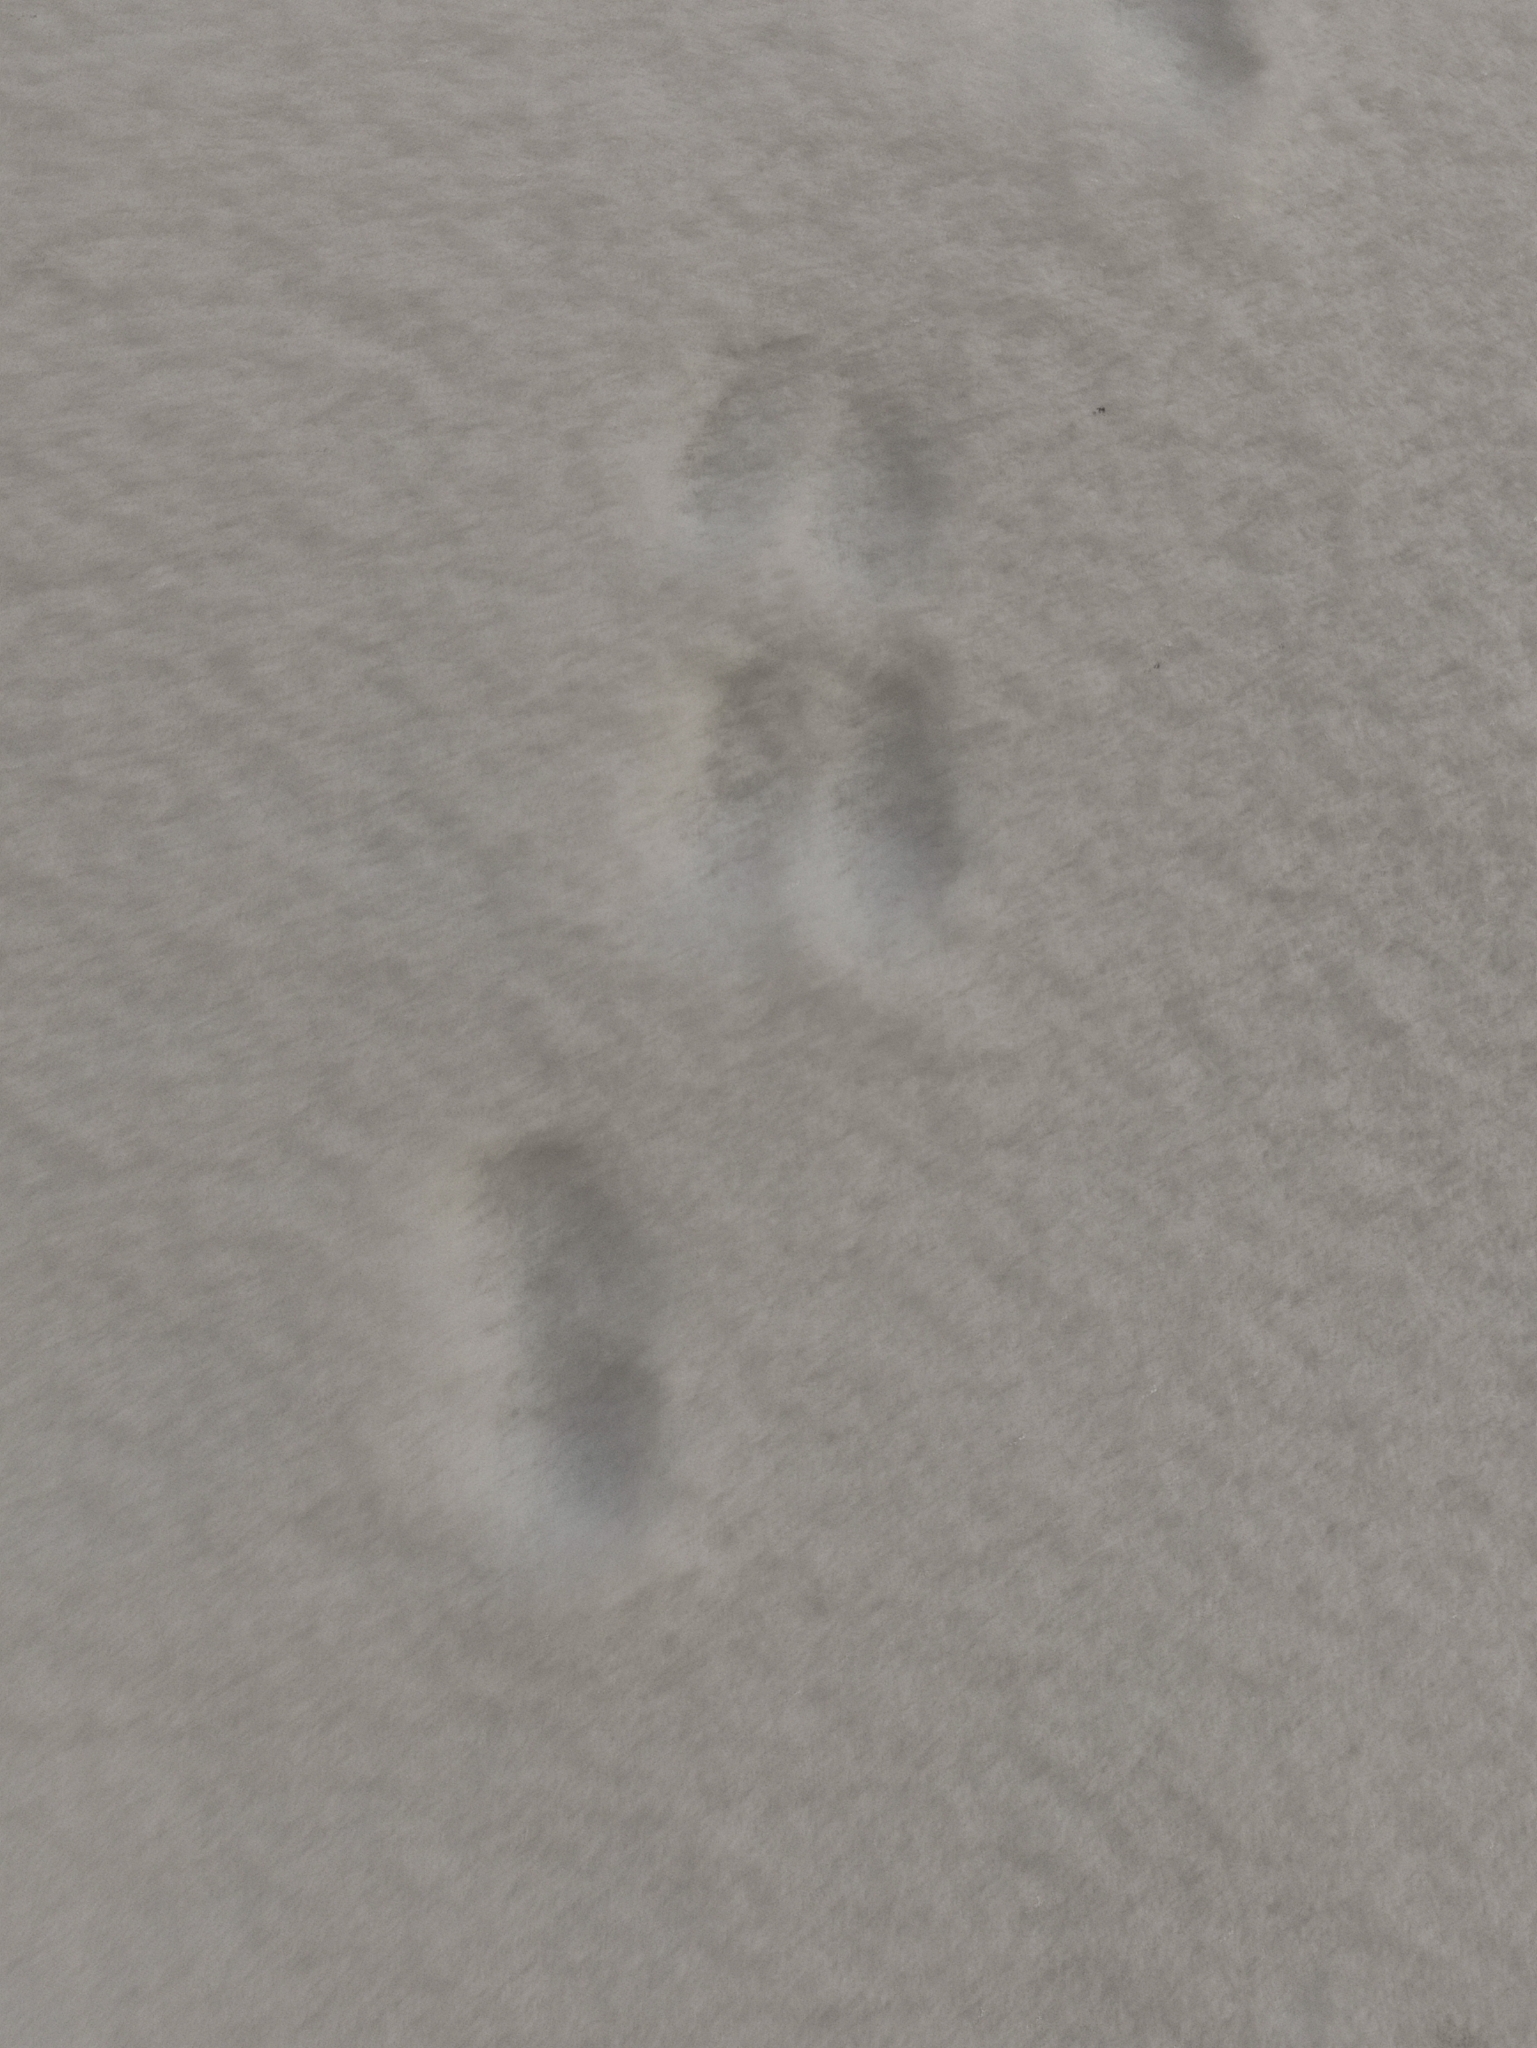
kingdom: Animalia
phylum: Chordata
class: Mammalia
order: Rodentia
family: Sciuridae
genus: Sciurus
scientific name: Sciurus vulgaris
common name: Eurasian red squirrel
